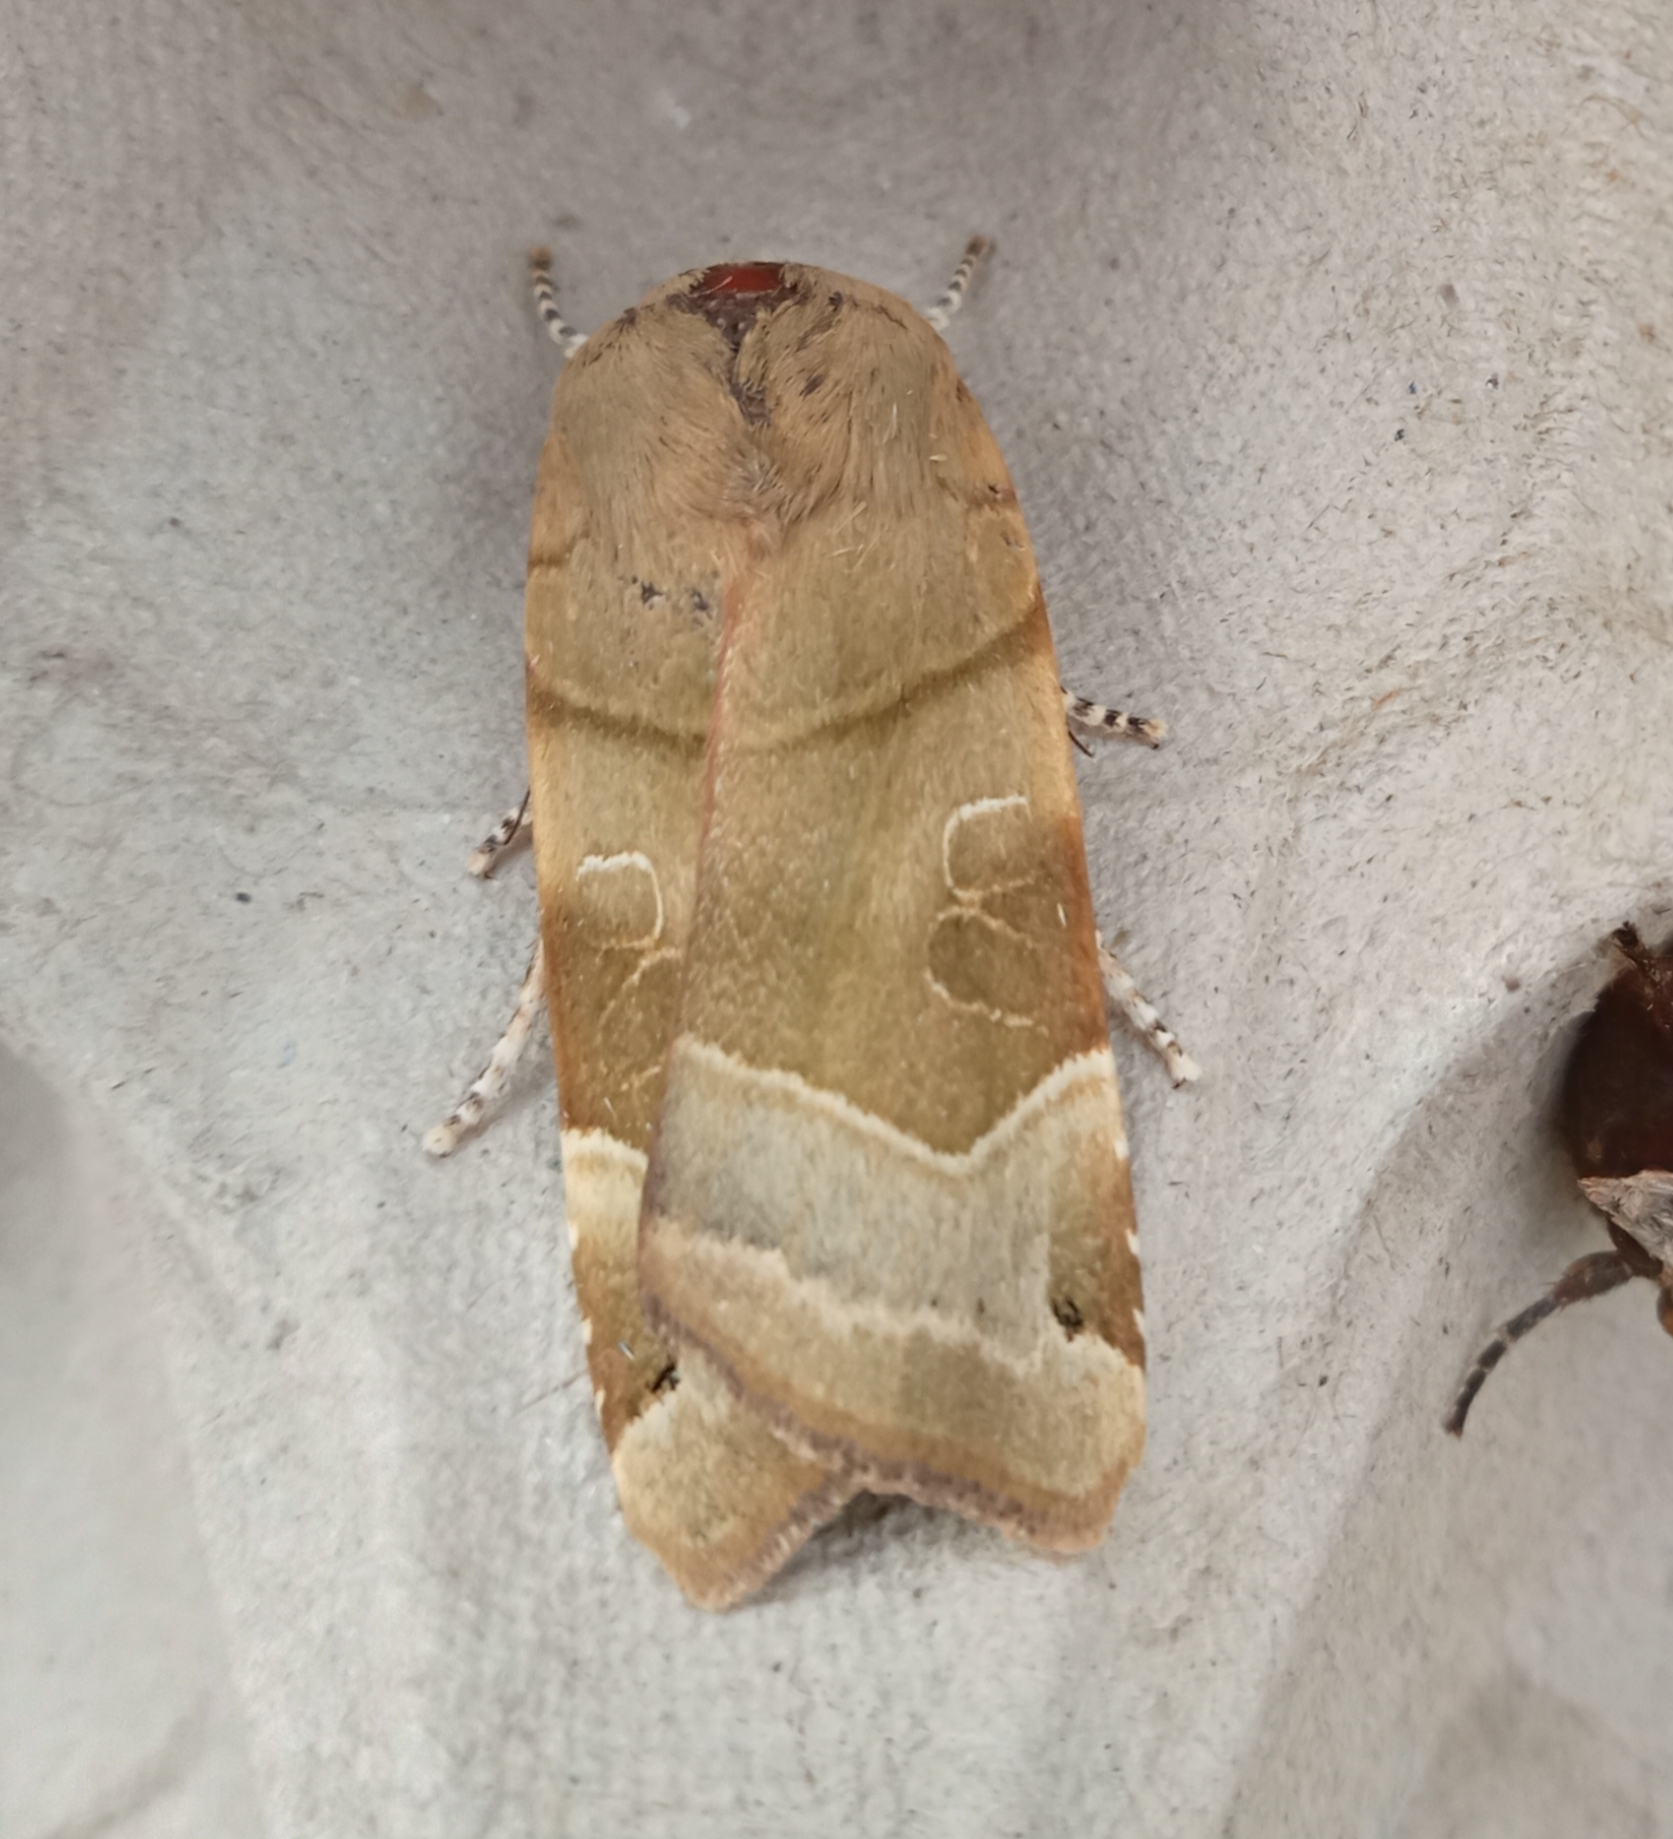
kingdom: Animalia
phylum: Arthropoda
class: Insecta
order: Lepidoptera
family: Noctuidae
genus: Noctua
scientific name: Noctua fimbriata
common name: Broad-bordered yellow underwing
